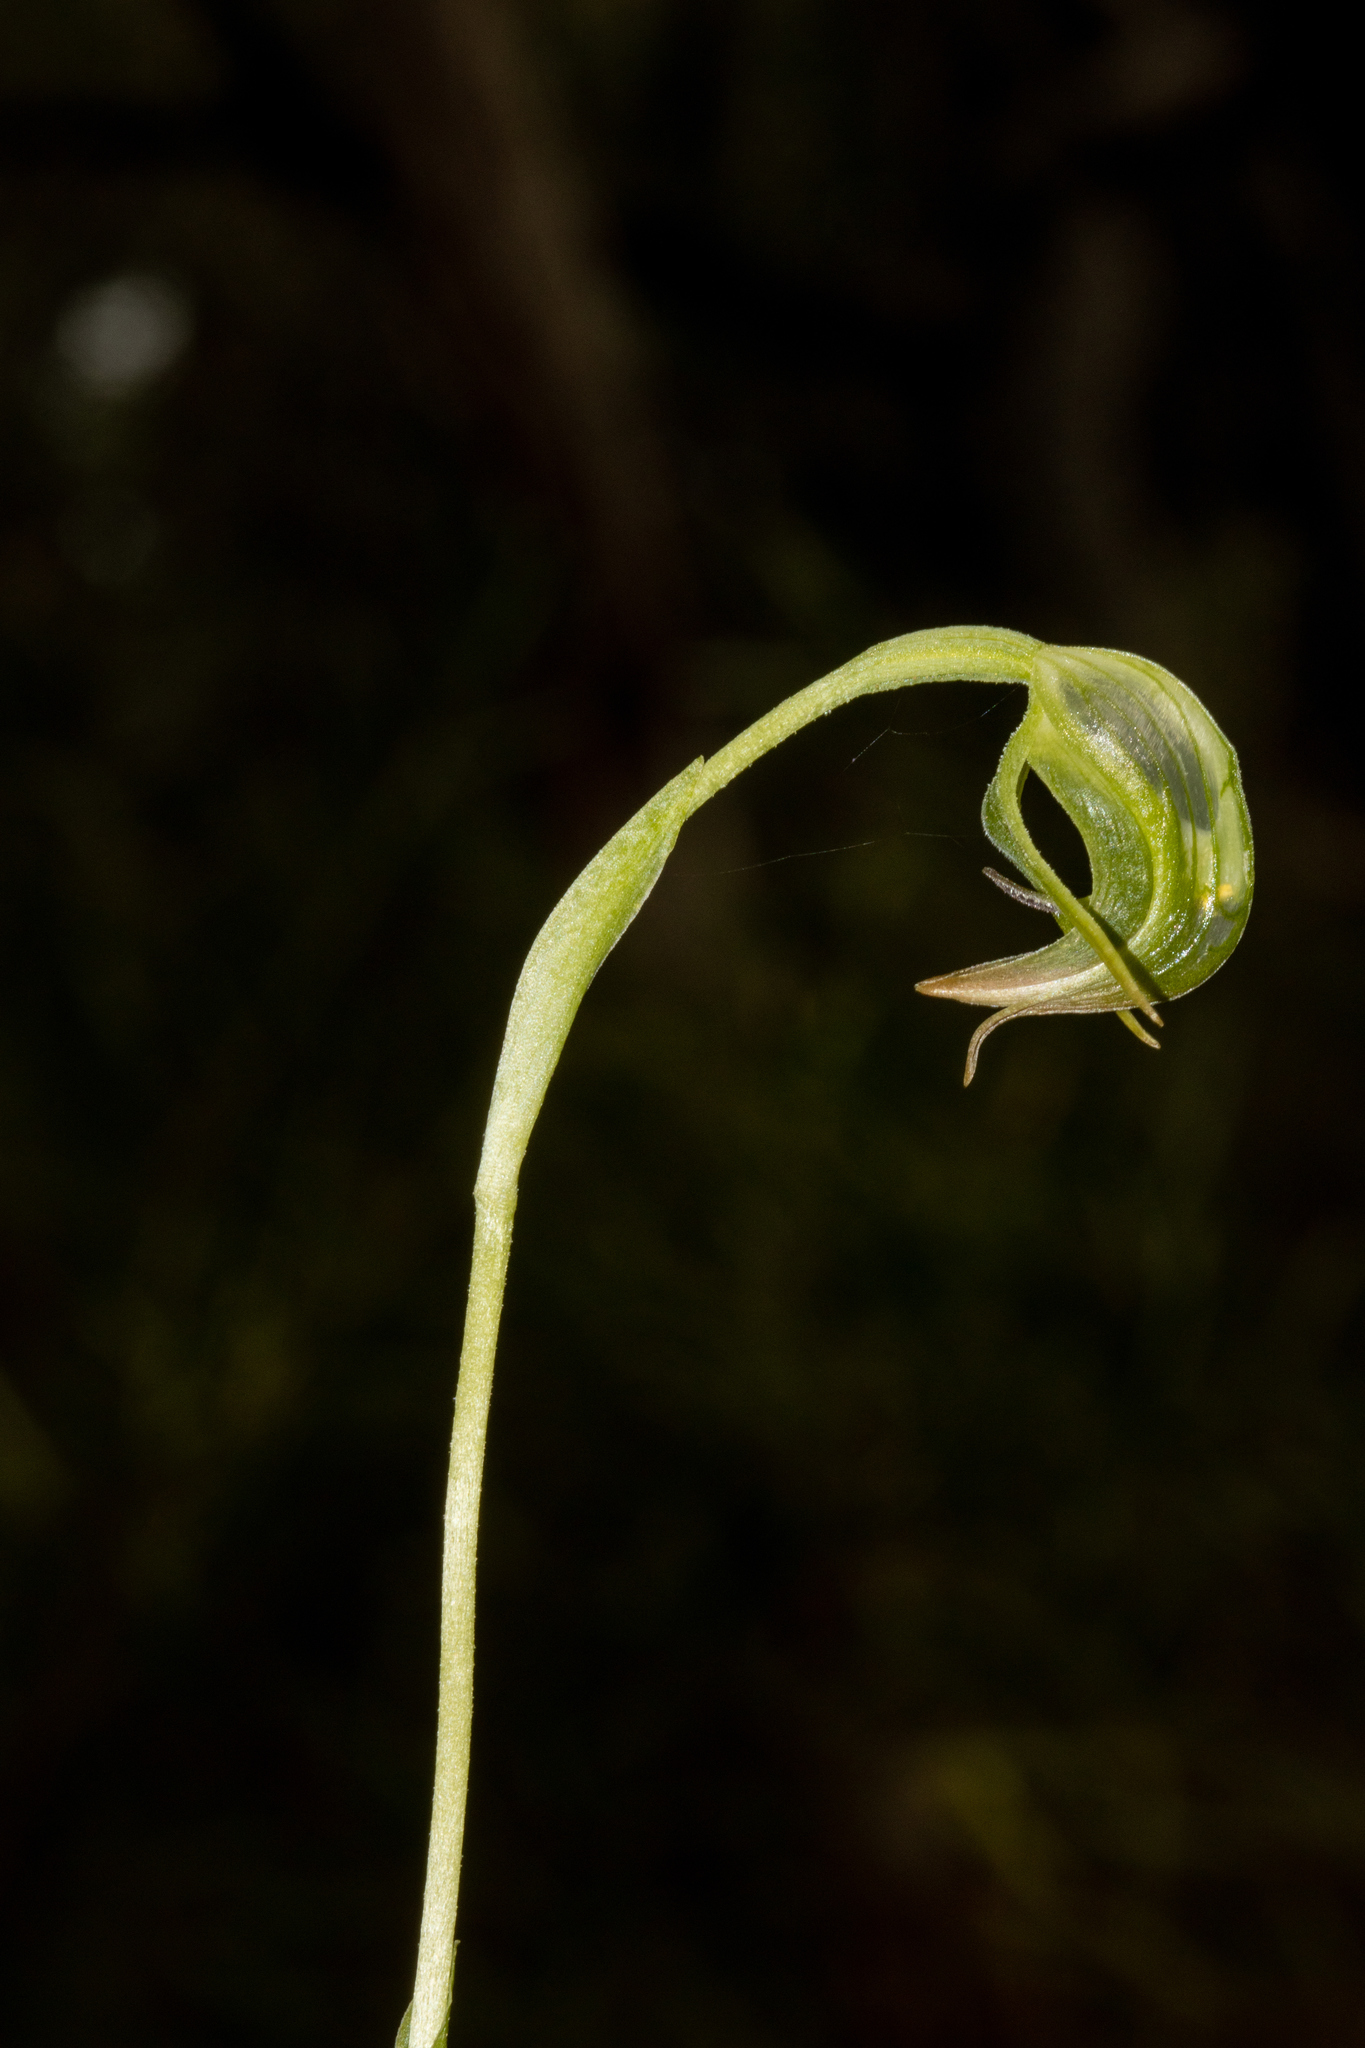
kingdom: Plantae
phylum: Tracheophyta
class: Liliopsida
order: Asparagales
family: Orchidaceae
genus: Pterostylis
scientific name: Pterostylis nutans
